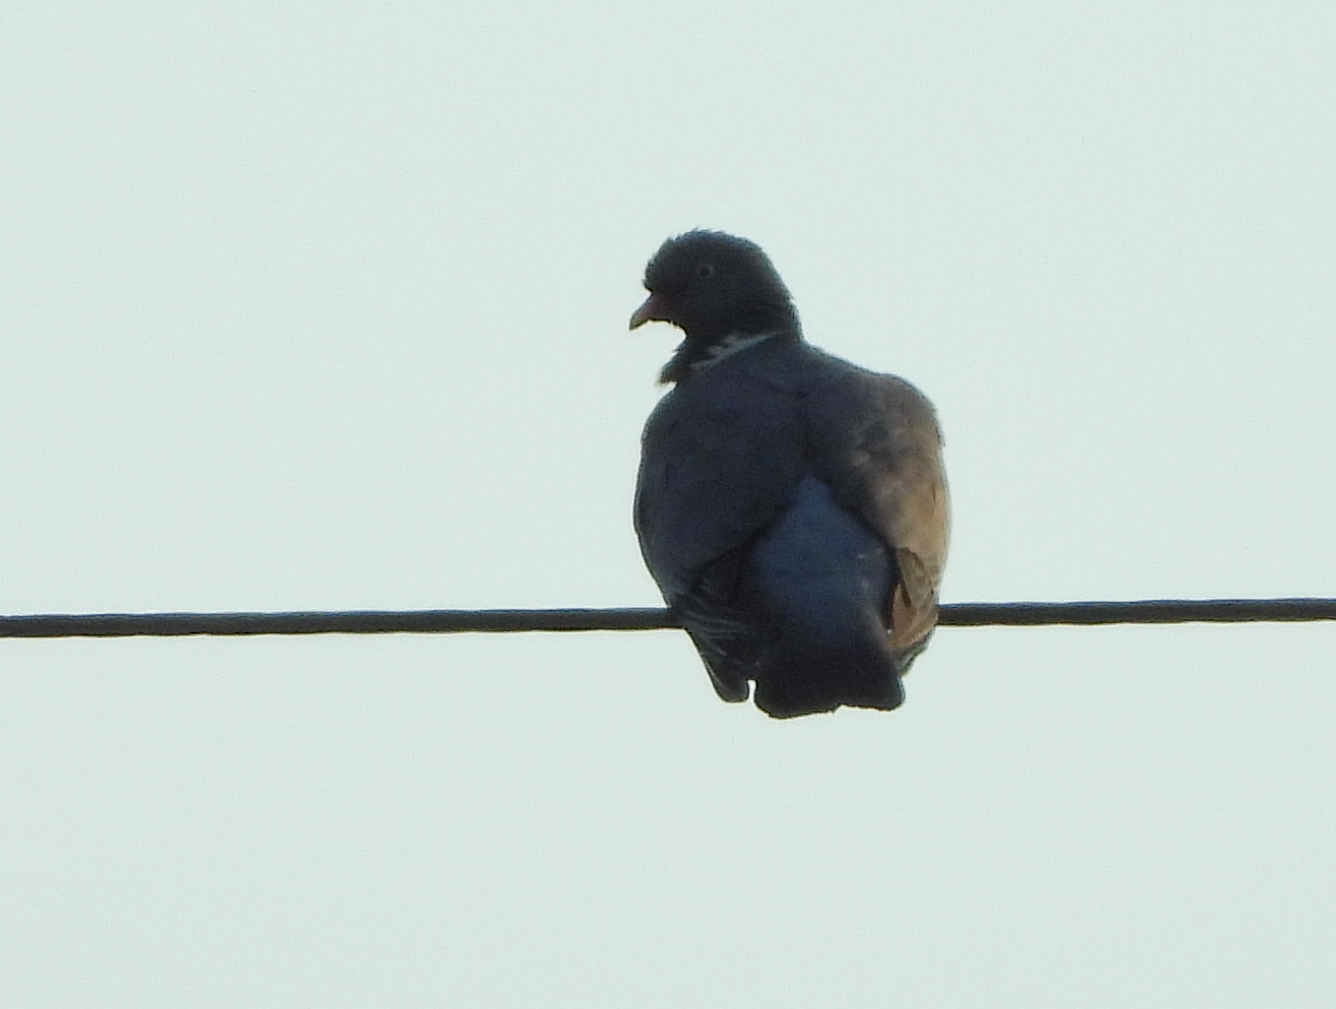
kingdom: Animalia
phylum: Chordata
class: Aves
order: Columbiformes
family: Columbidae
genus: Columba
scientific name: Columba palumbus
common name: Common wood pigeon
